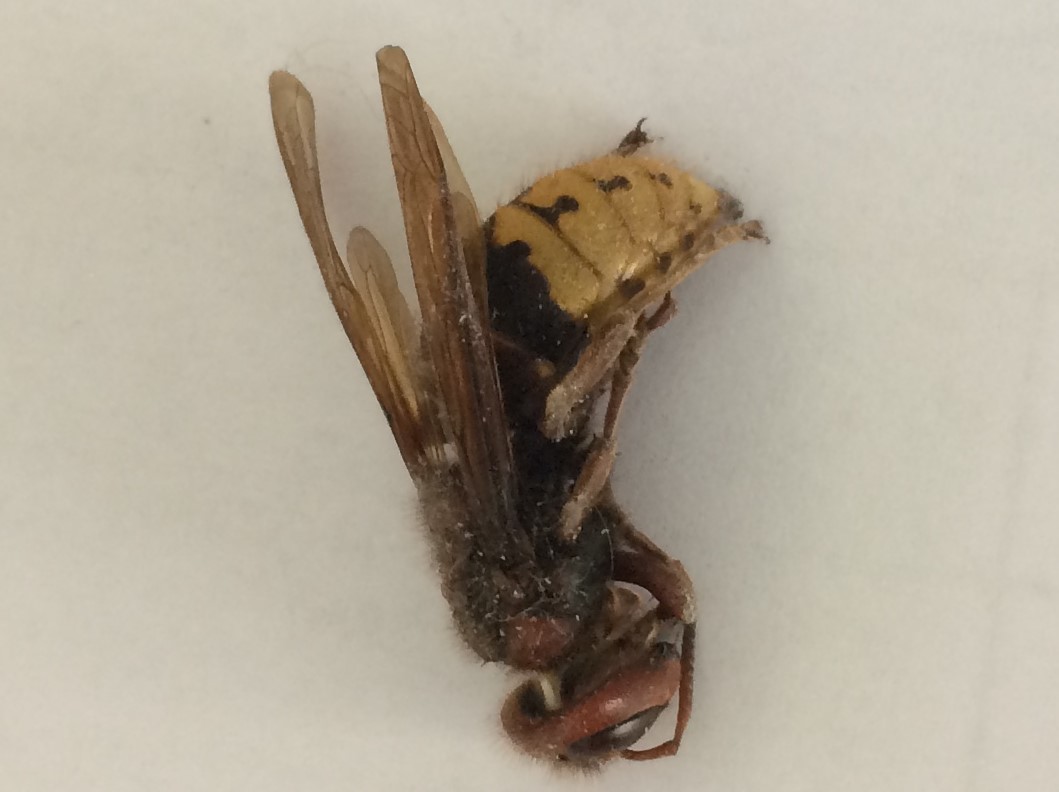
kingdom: Animalia
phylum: Arthropoda
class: Insecta
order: Hymenoptera
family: Vespidae
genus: Vespa
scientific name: Vespa crabro
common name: Hornet
